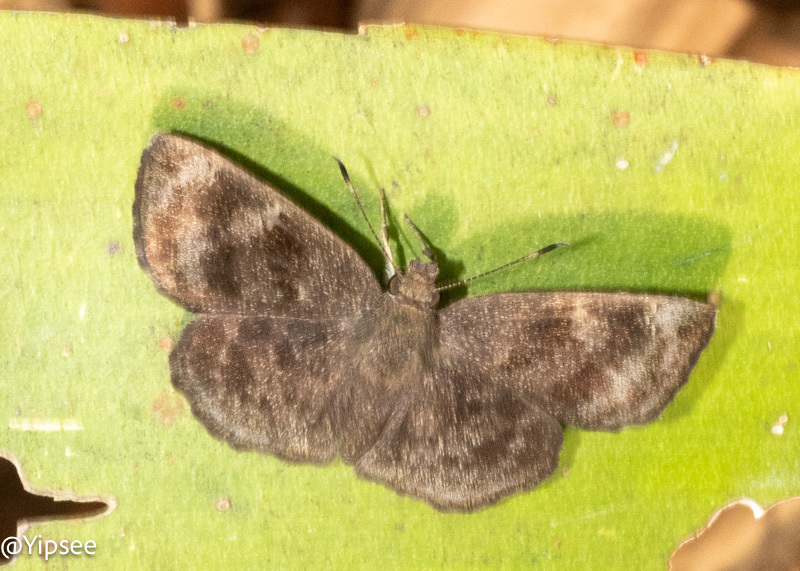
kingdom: Animalia
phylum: Arthropoda
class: Insecta
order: Lepidoptera
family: Hesperiidae
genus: Sarangesa
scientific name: Sarangesa dasahara
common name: Common small flat
